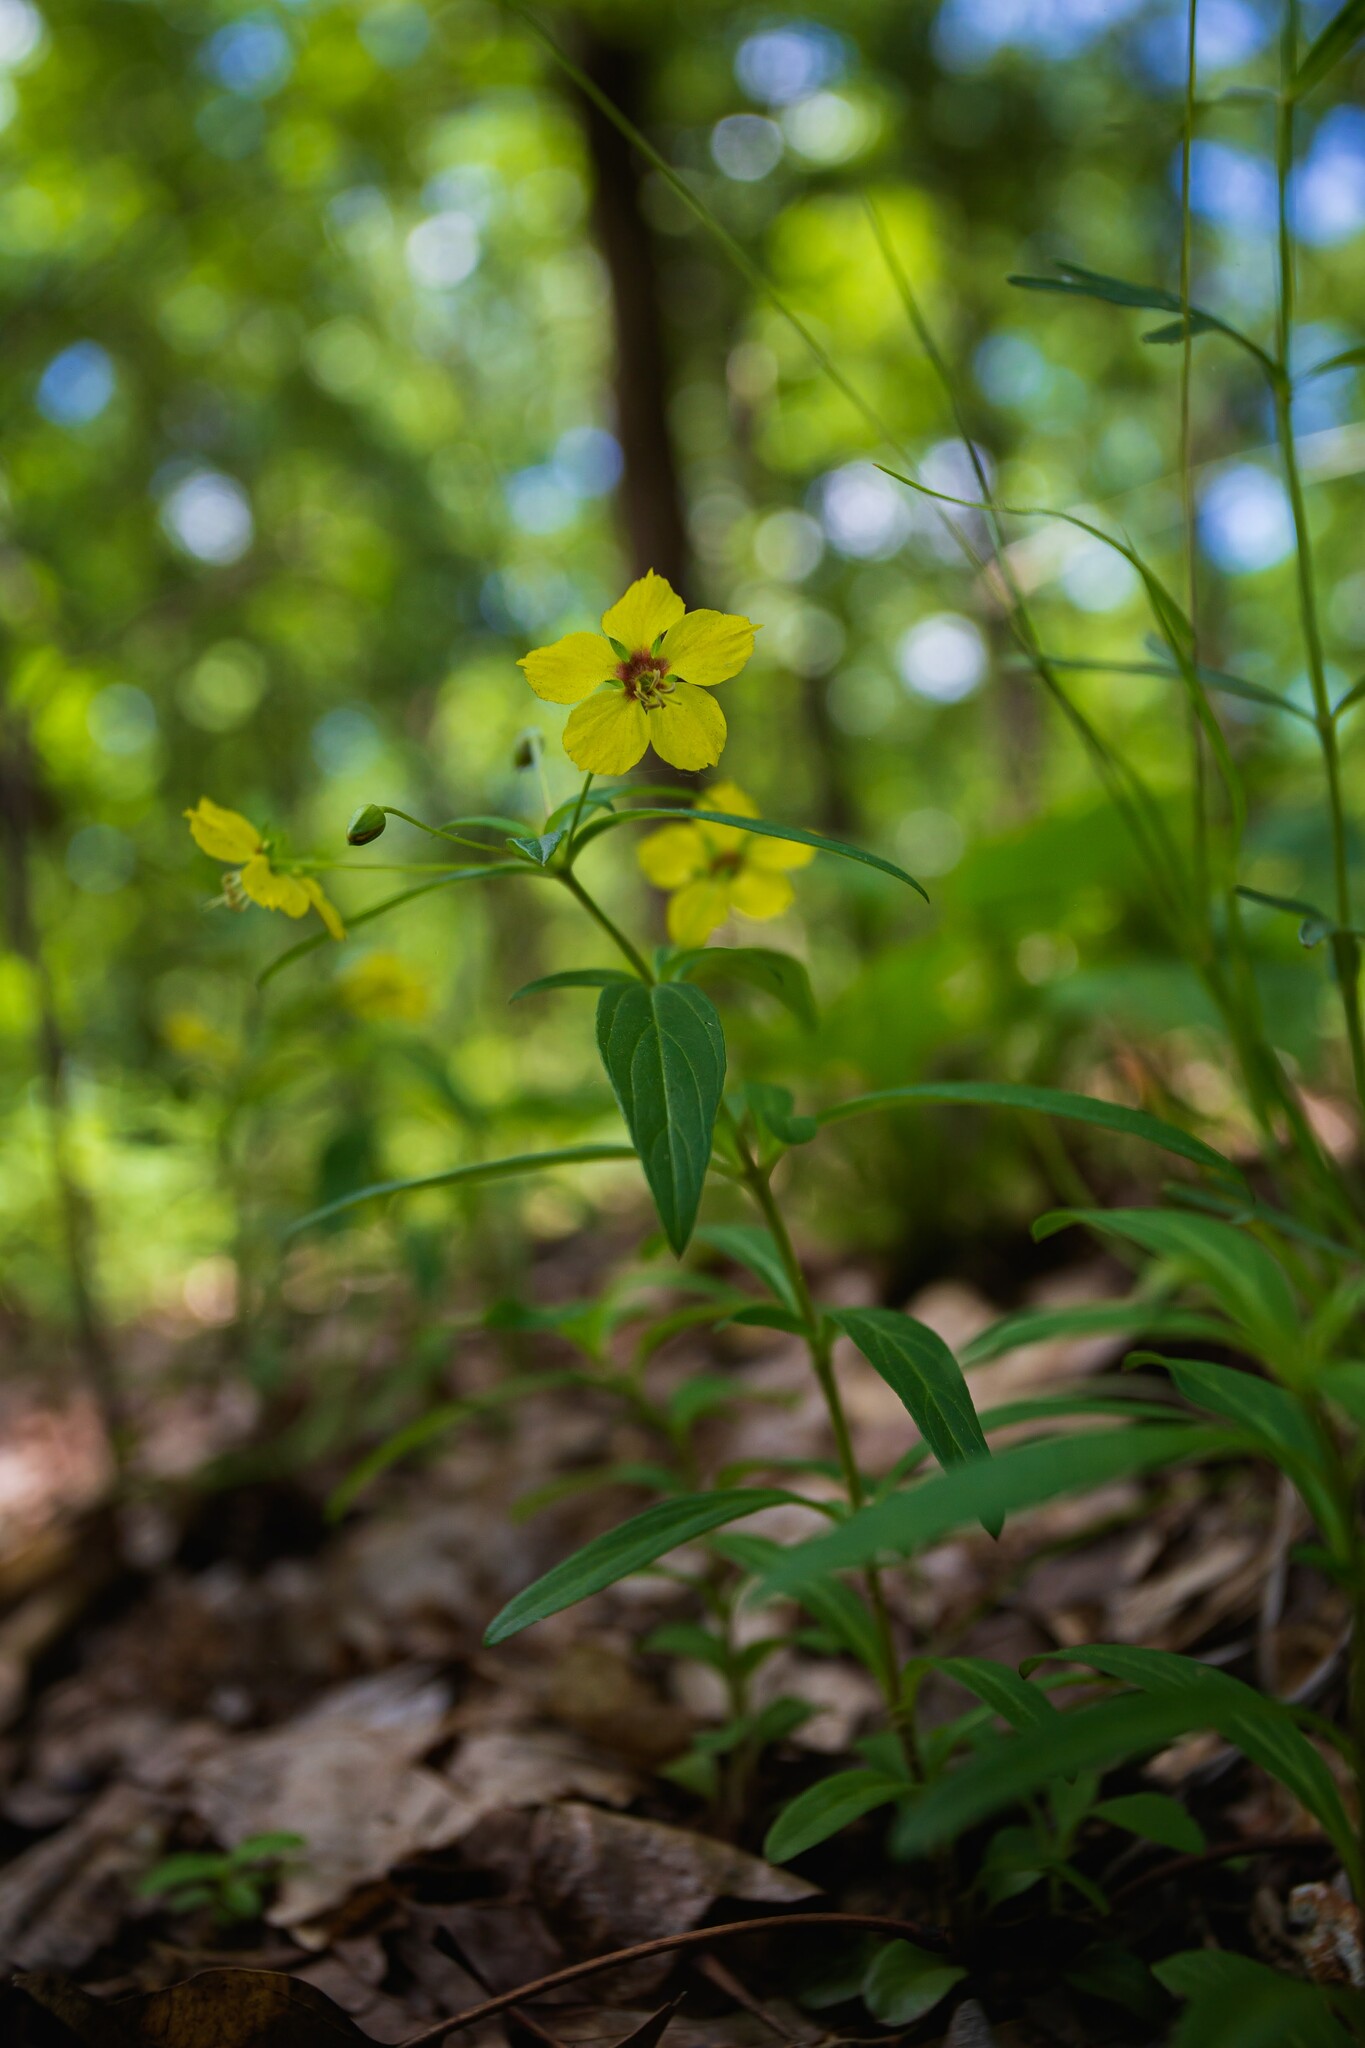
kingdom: Plantae
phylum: Tracheophyta
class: Magnoliopsida
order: Ericales
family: Primulaceae
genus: Lysimachia
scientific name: Lysimachia lanceolata
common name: Lance-leaved loosestrife
